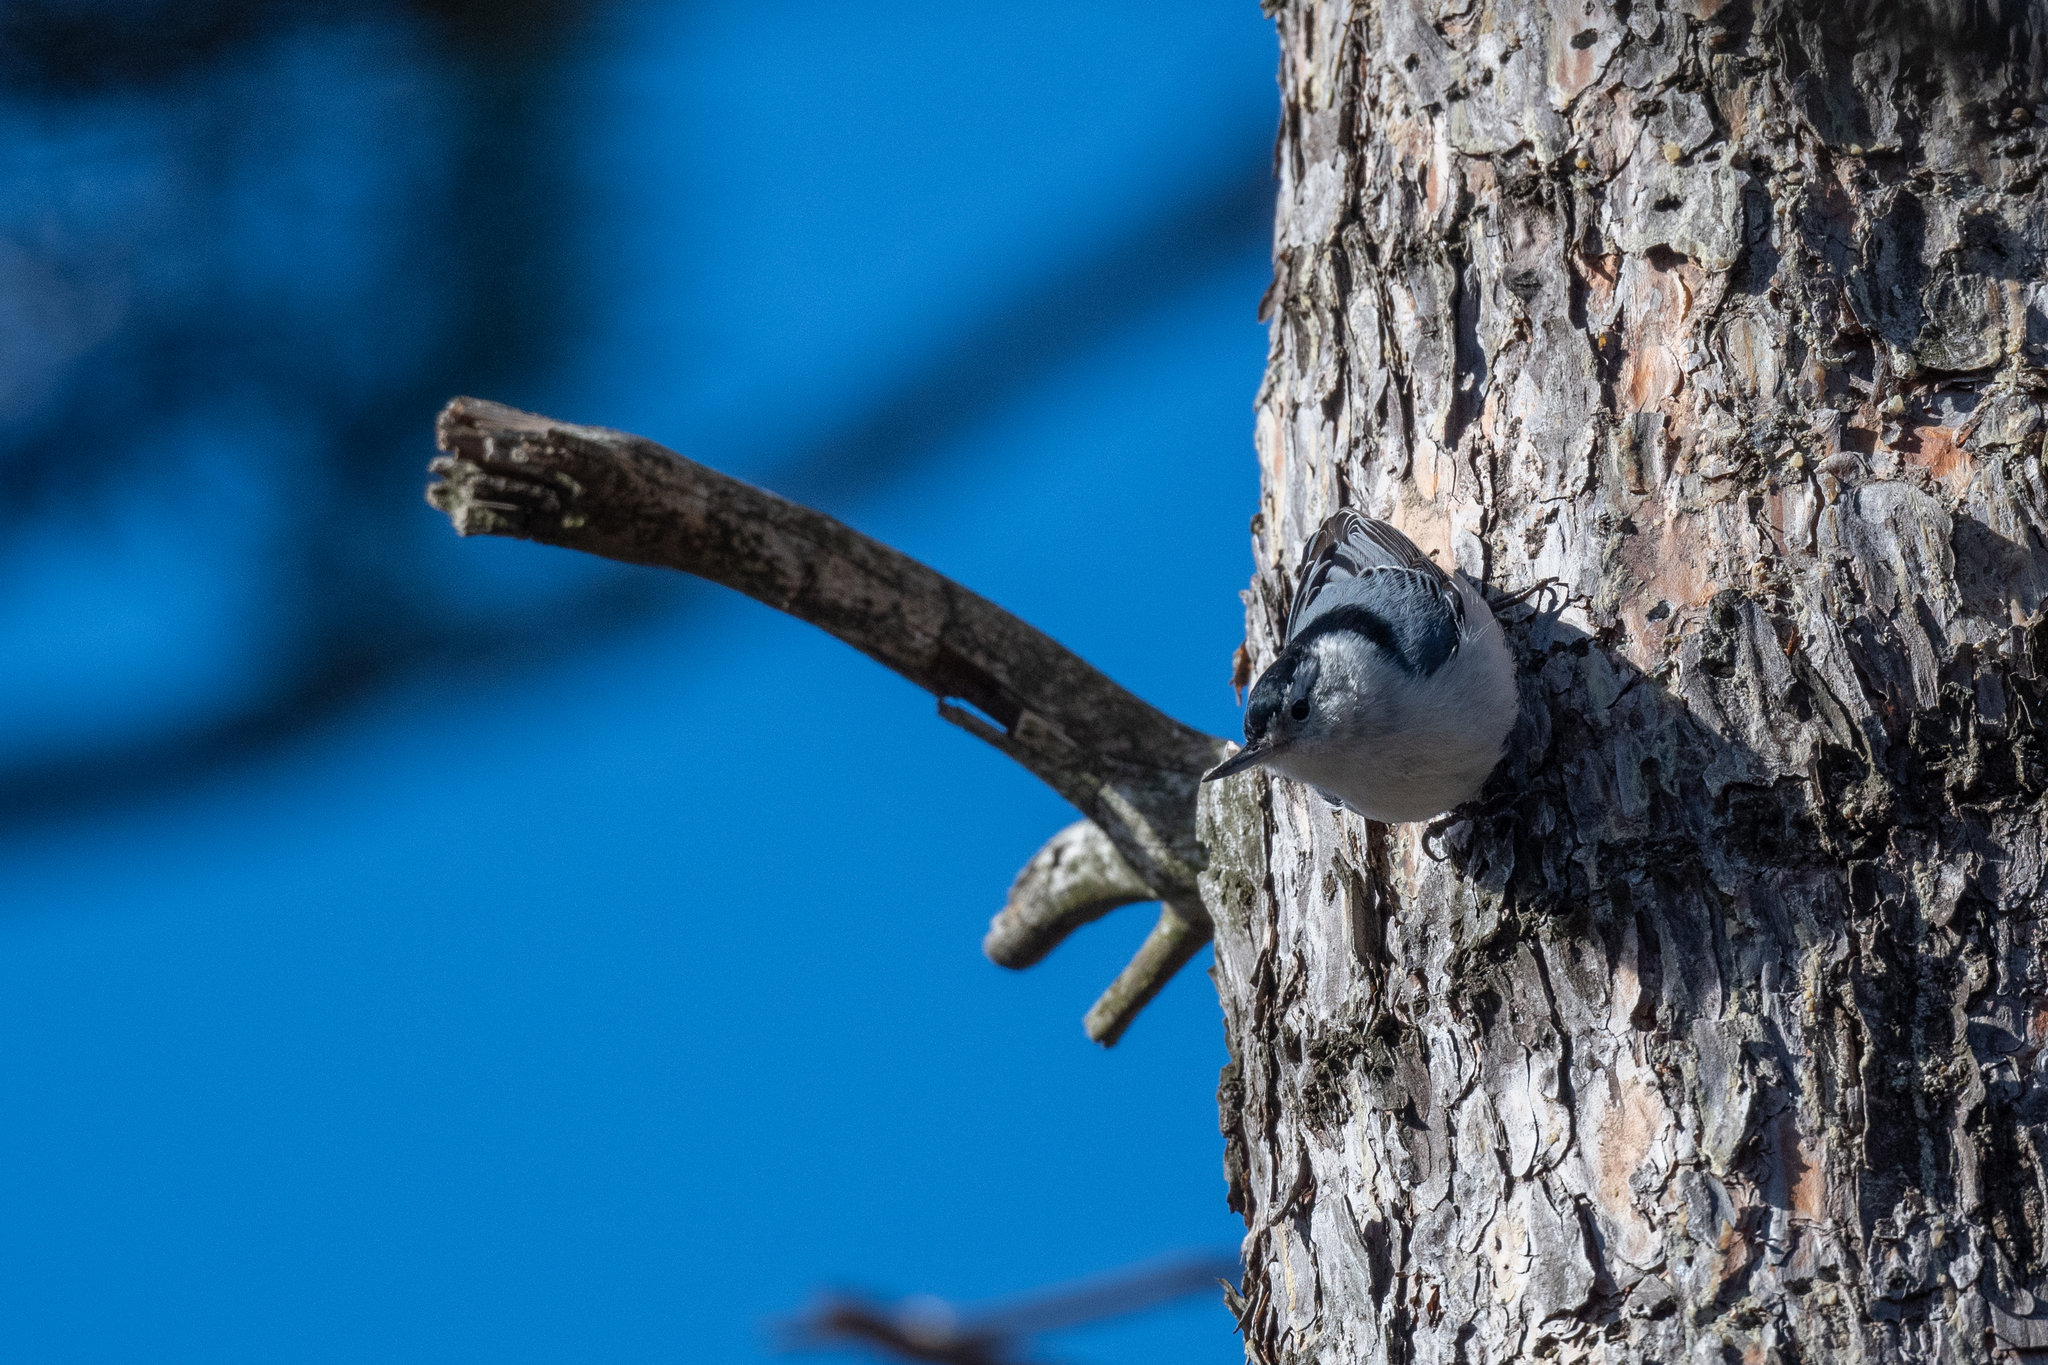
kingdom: Animalia
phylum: Chordata
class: Aves
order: Passeriformes
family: Sittidae
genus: Sitta
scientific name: Sitta carolinensis
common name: White-breasted nuthatch
